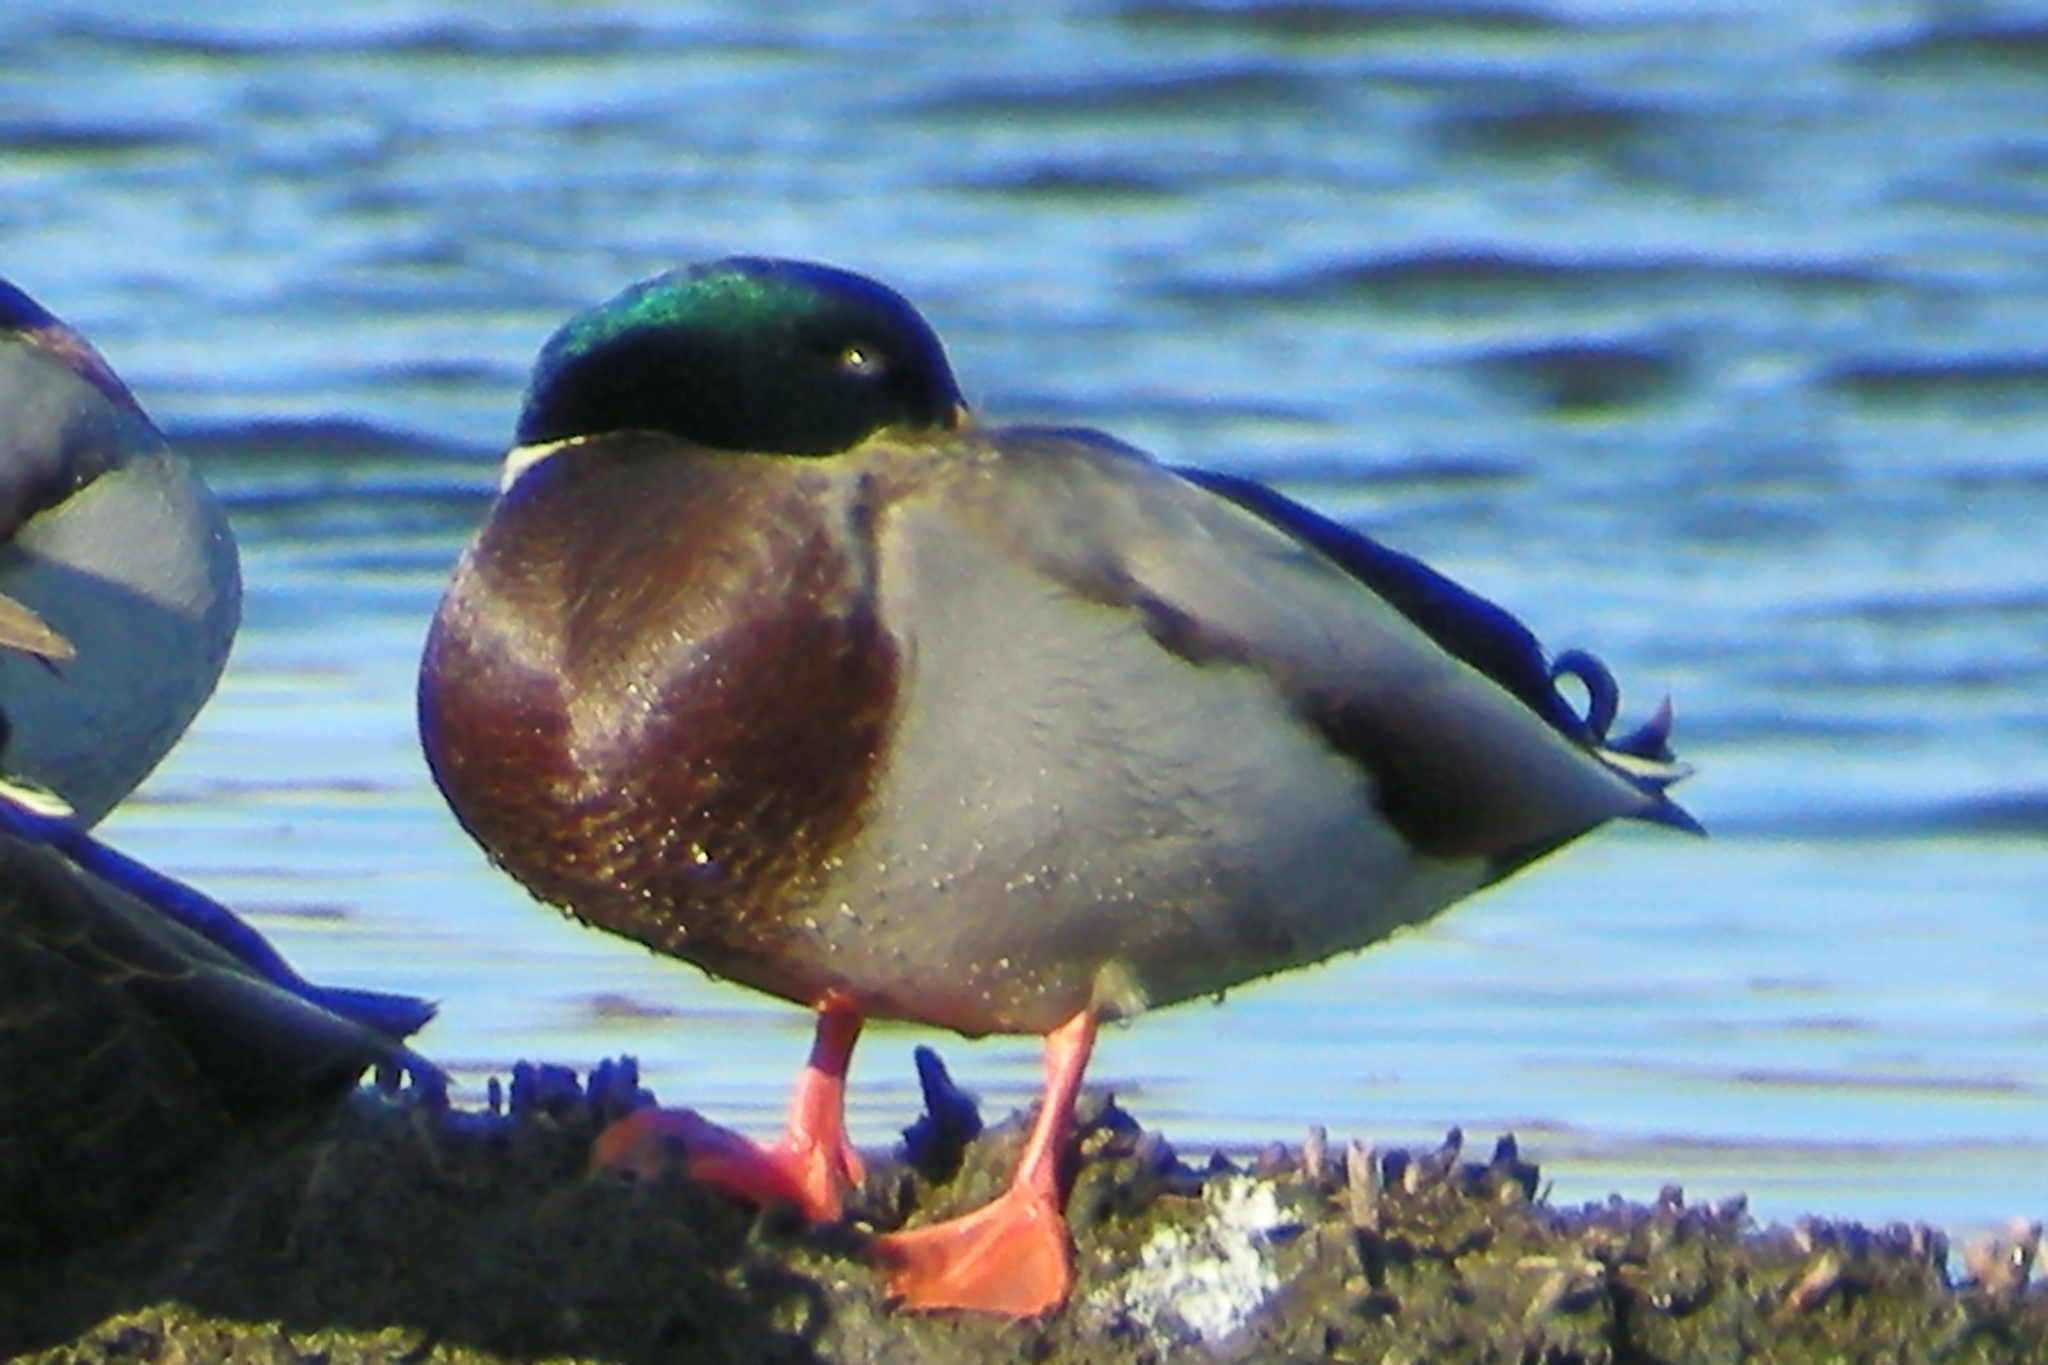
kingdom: Animalia
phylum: Chordata
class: Aves
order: Anseriformes
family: Anatidae
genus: Anas
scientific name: Anas platyrhynchos
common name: Mallard
